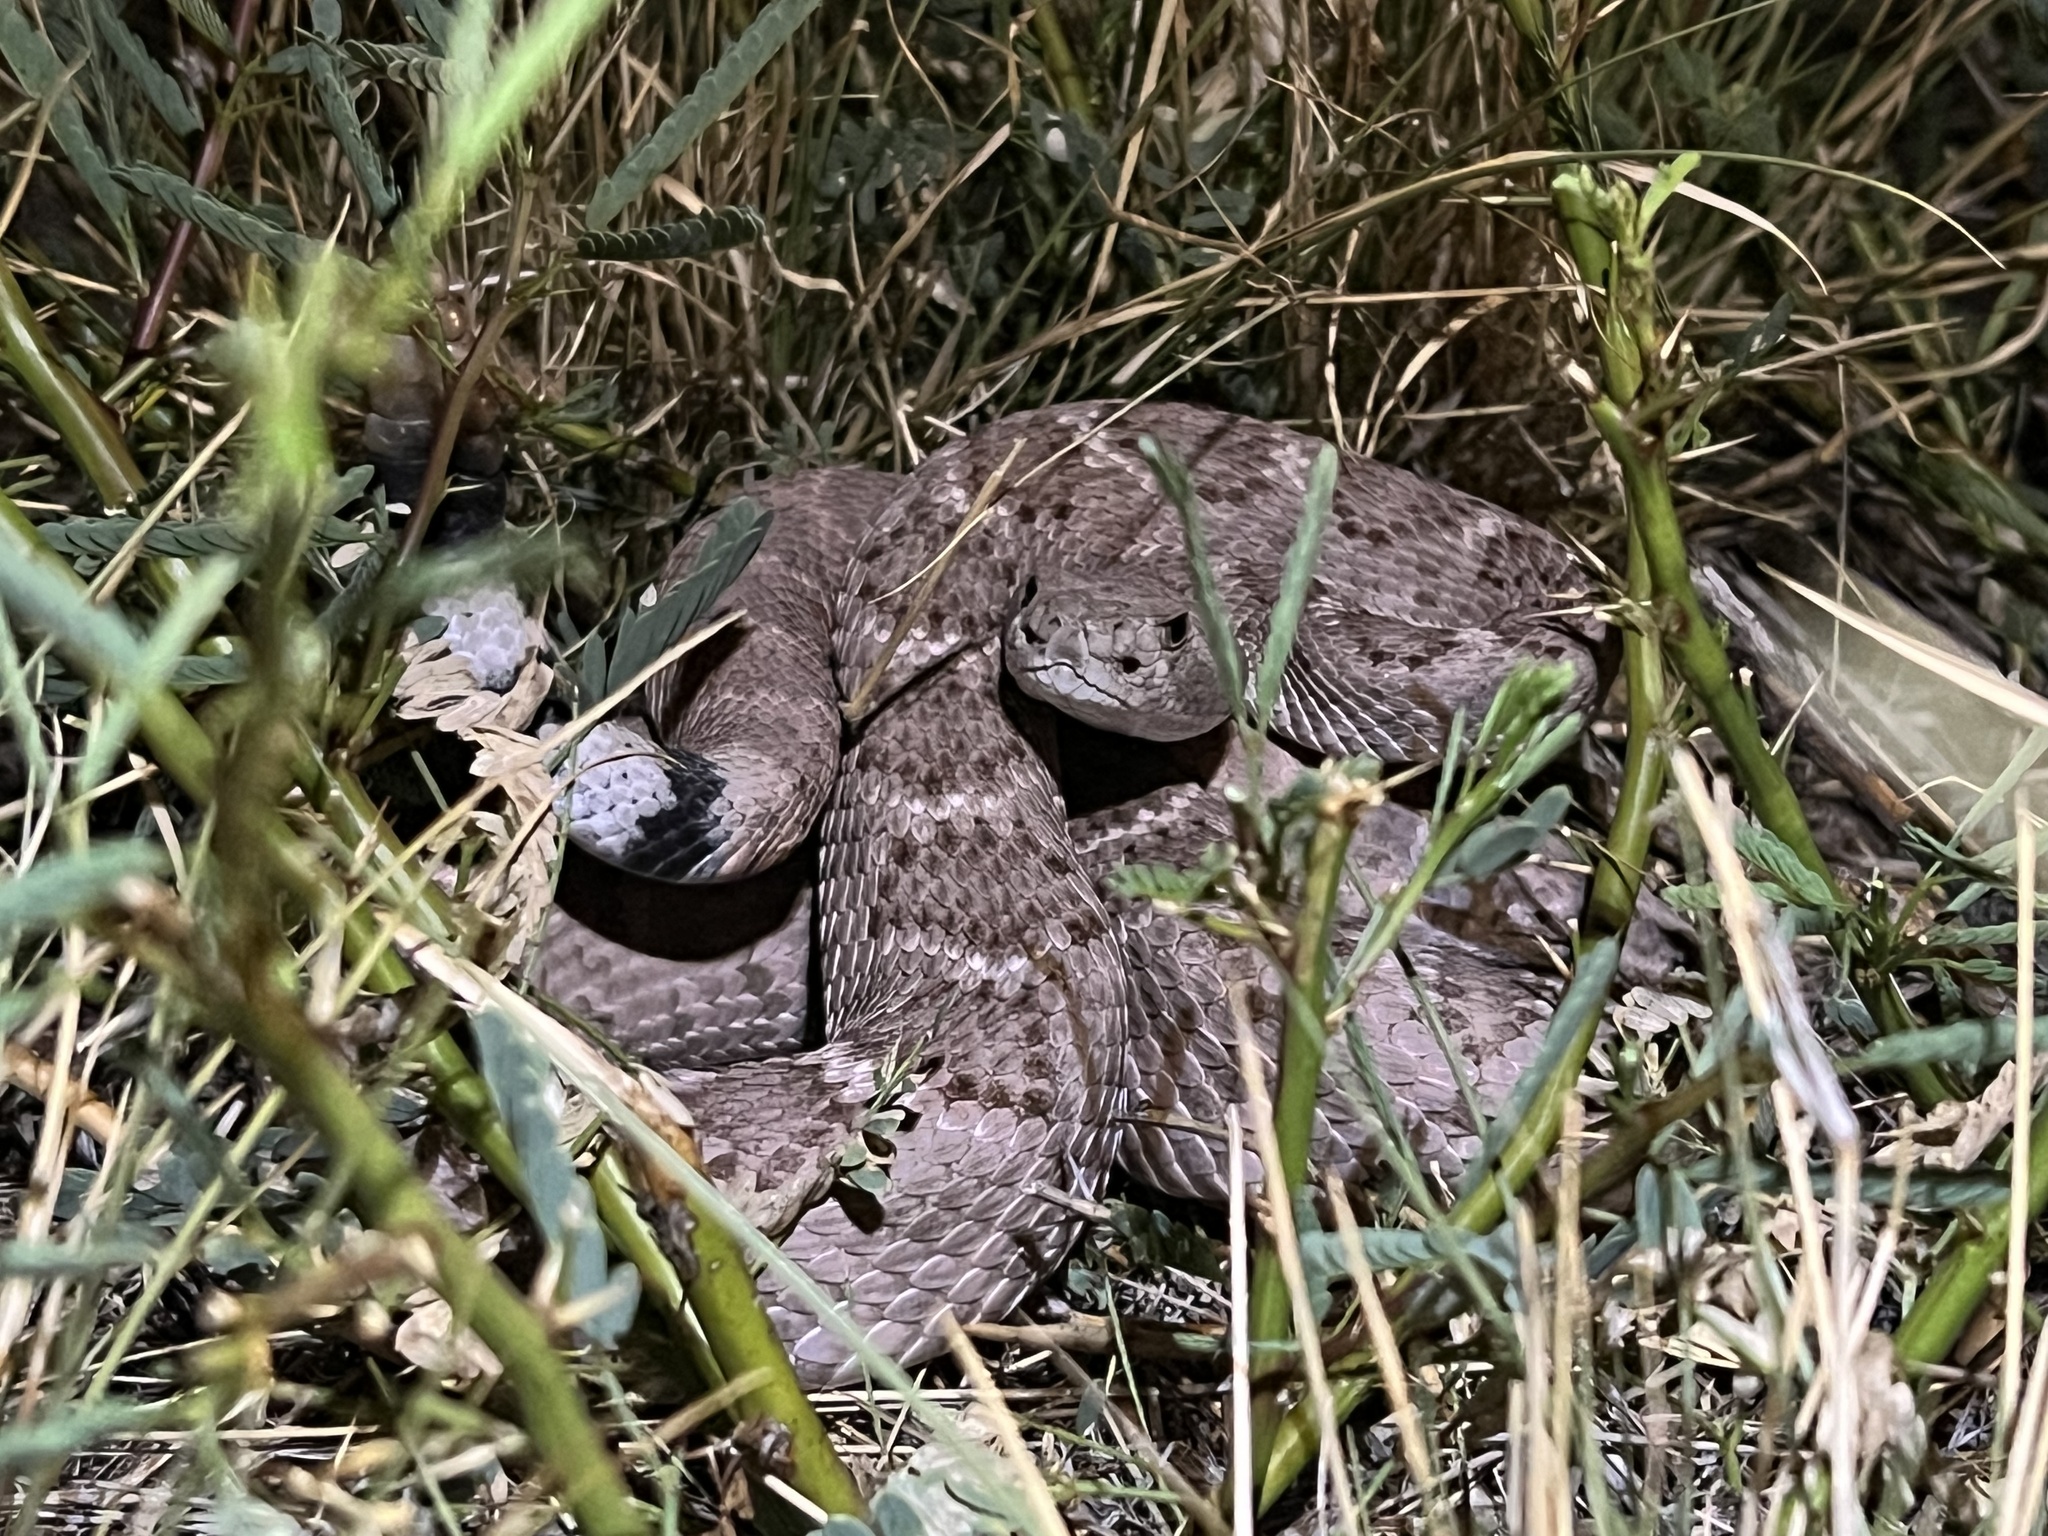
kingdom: Animalia
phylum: Chordata
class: Squamata
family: Viperidae
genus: Crotalus
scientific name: Crotalus atrox
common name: Western diamond-backed rattlesnake
